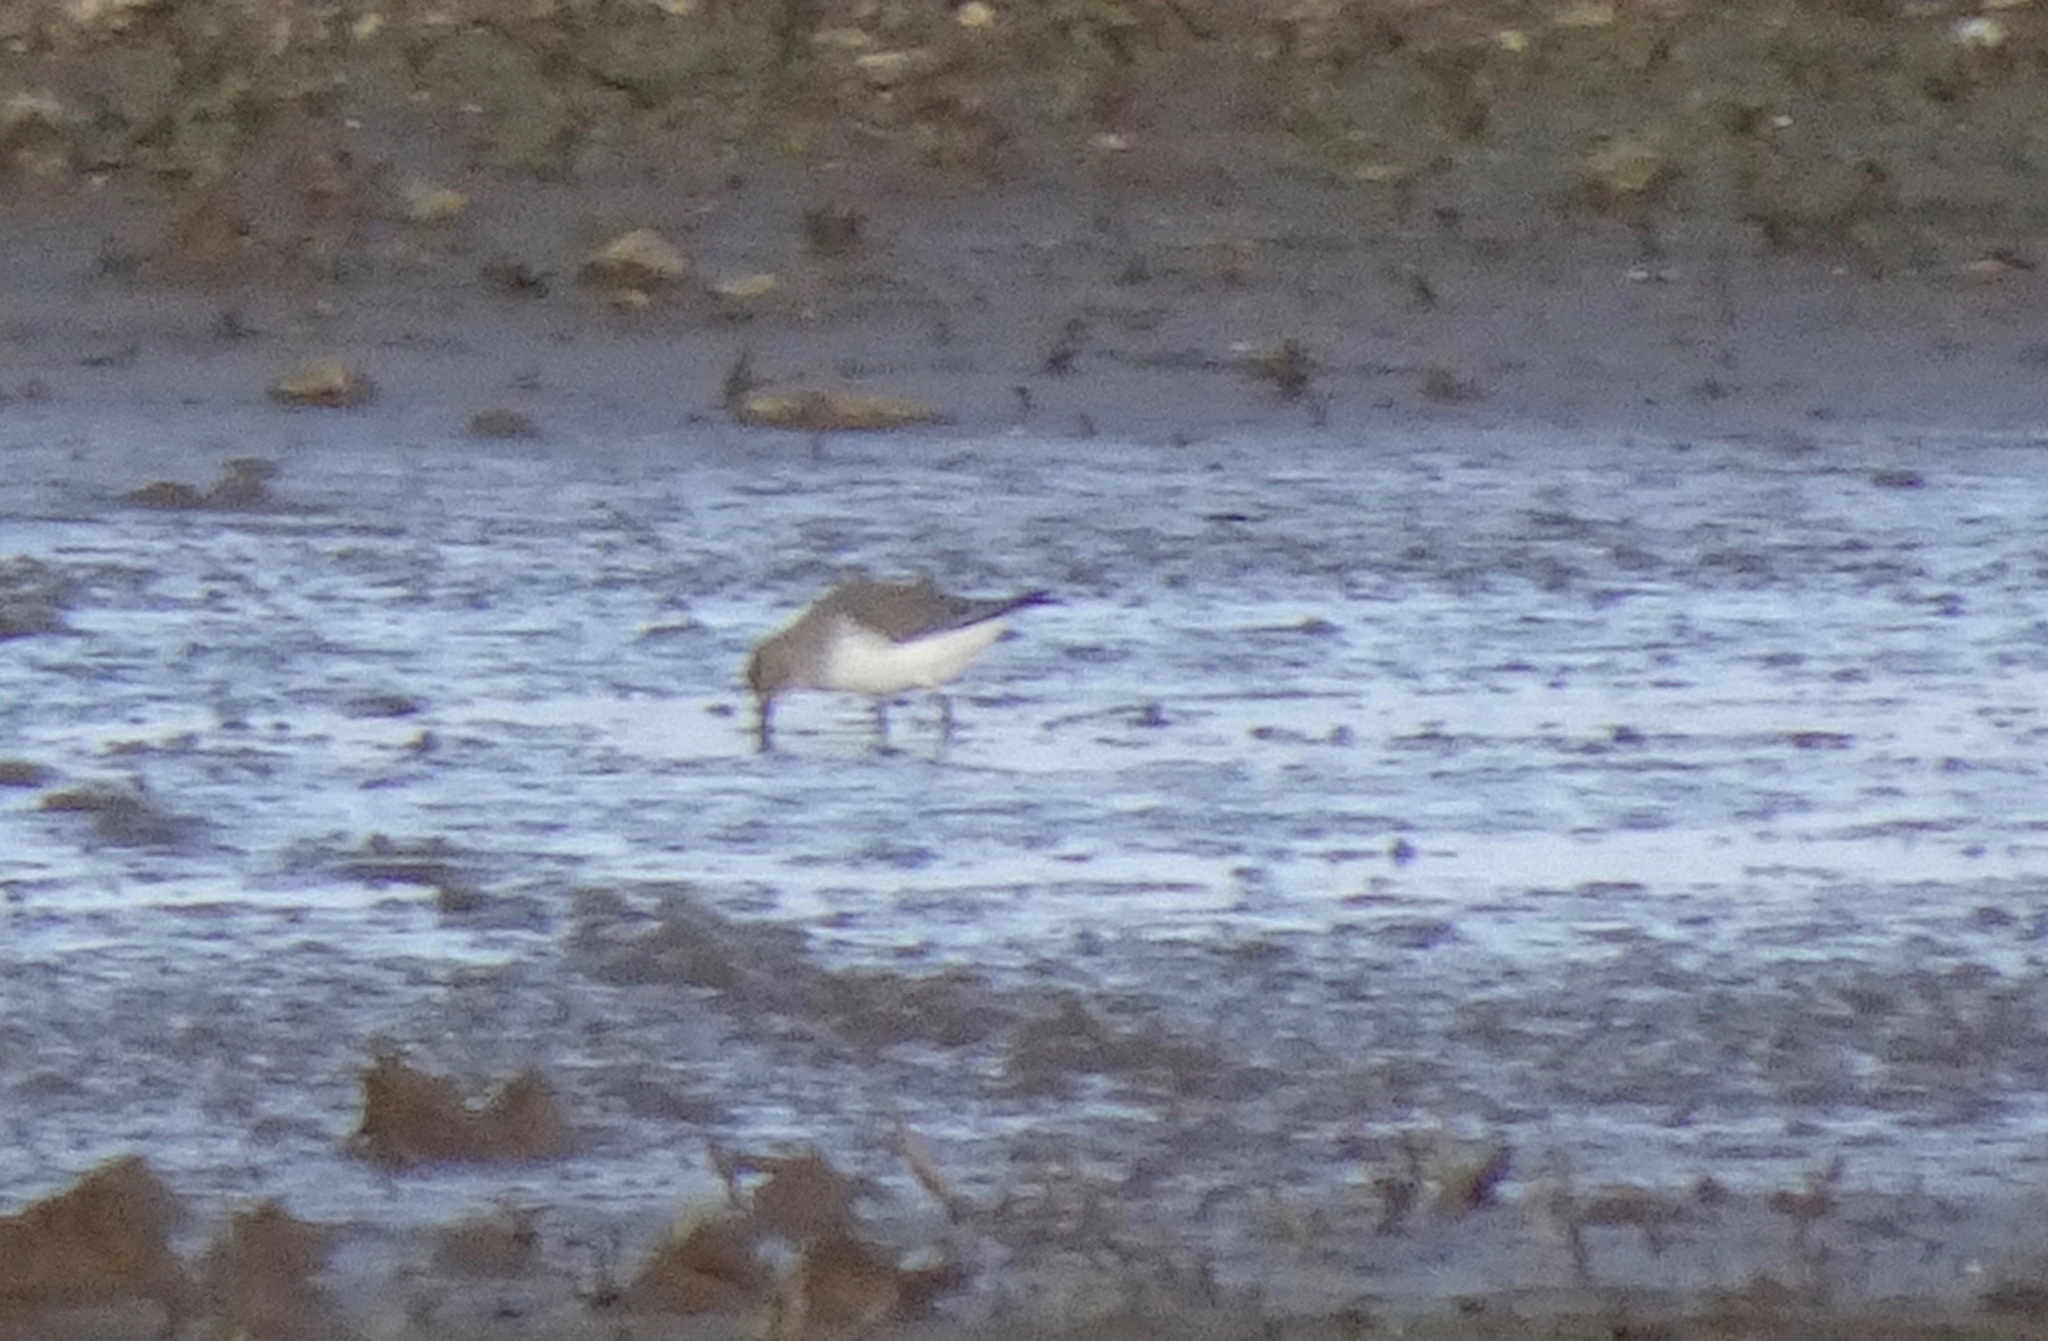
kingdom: Animalia
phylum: Chordata
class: Aves
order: Charadriiformes
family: Scolopacidae
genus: Calidris
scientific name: Calidris alpina
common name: Dunlin
